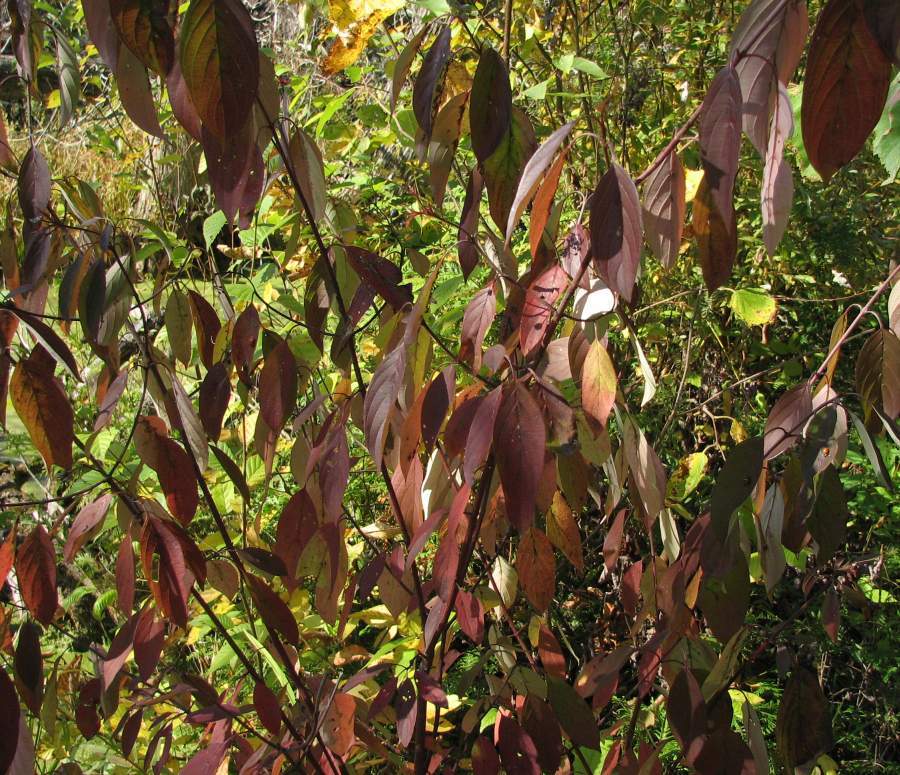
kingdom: Plantae
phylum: Tracheophyta
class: Magnoliopsida
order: Cornales
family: Cornaceae
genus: Cornus
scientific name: Cornus amomum
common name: Silky dogwood
